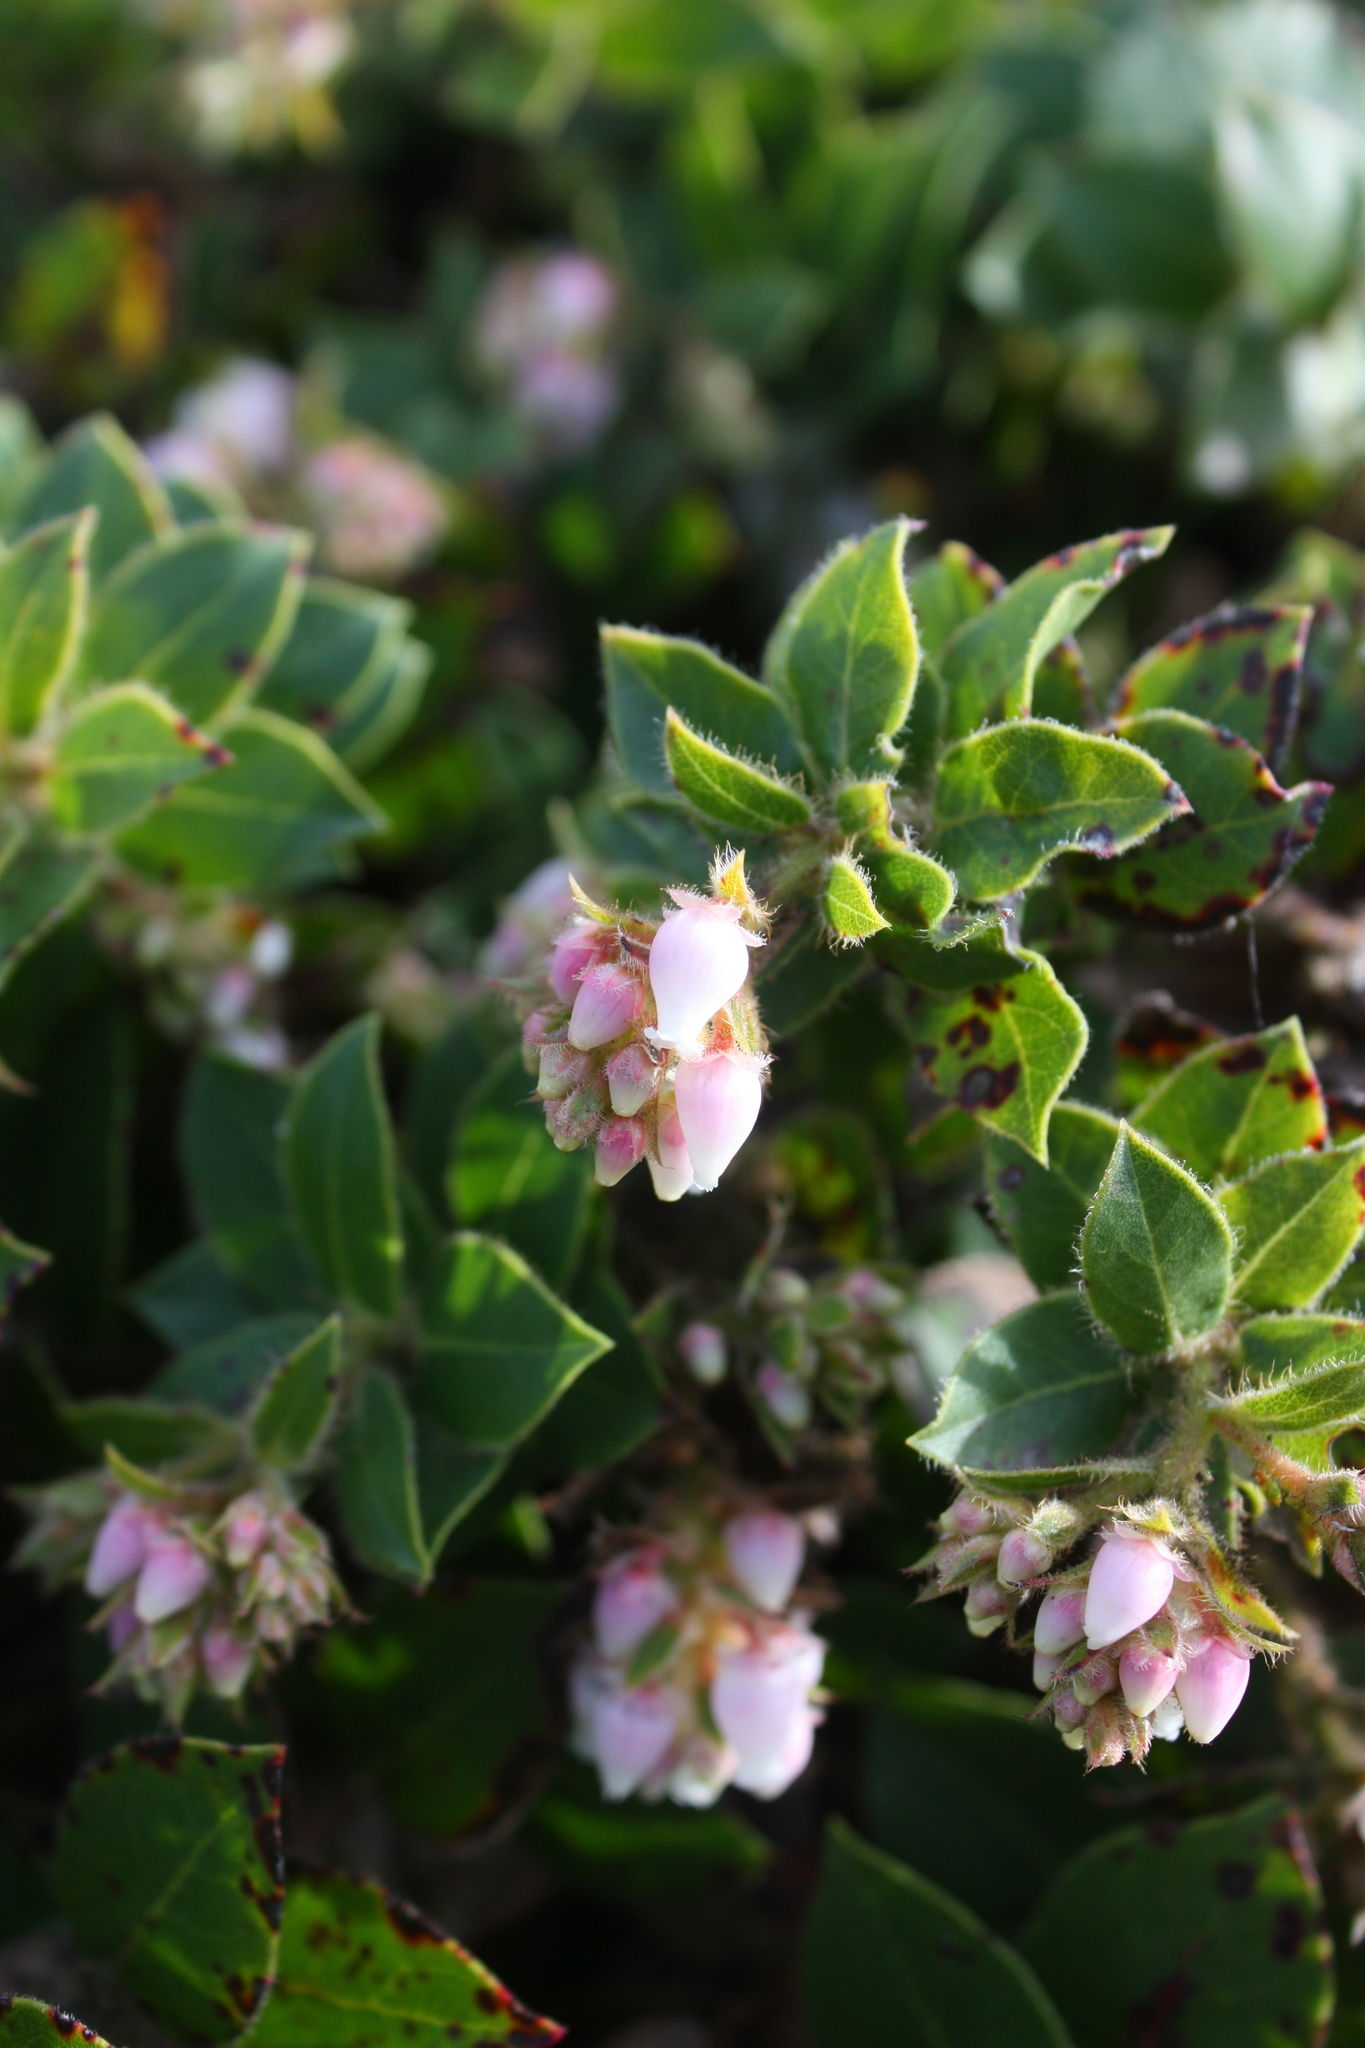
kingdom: Plantae
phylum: Tracheophyta
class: Magnoliopsida
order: Ericales
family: Ericaceae
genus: Arctostaphylos
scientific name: Arctostaphylos imbricata
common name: San bruno mountain manzanita
